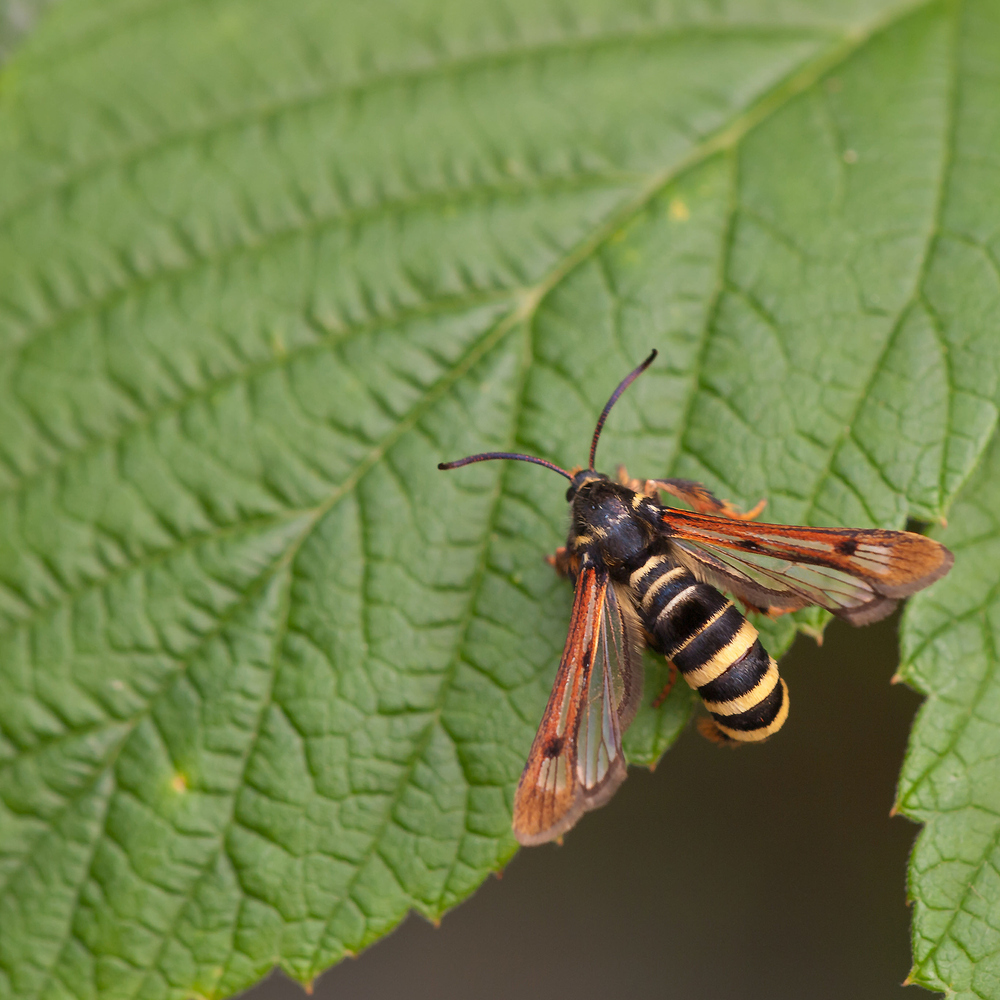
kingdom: Animalia
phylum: Arthropoda
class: Insecta
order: Lepidoptera
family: Sesiidae
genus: Pennisetia
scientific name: Pennisetia hylaeiformis
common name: Raspberry clearwing
